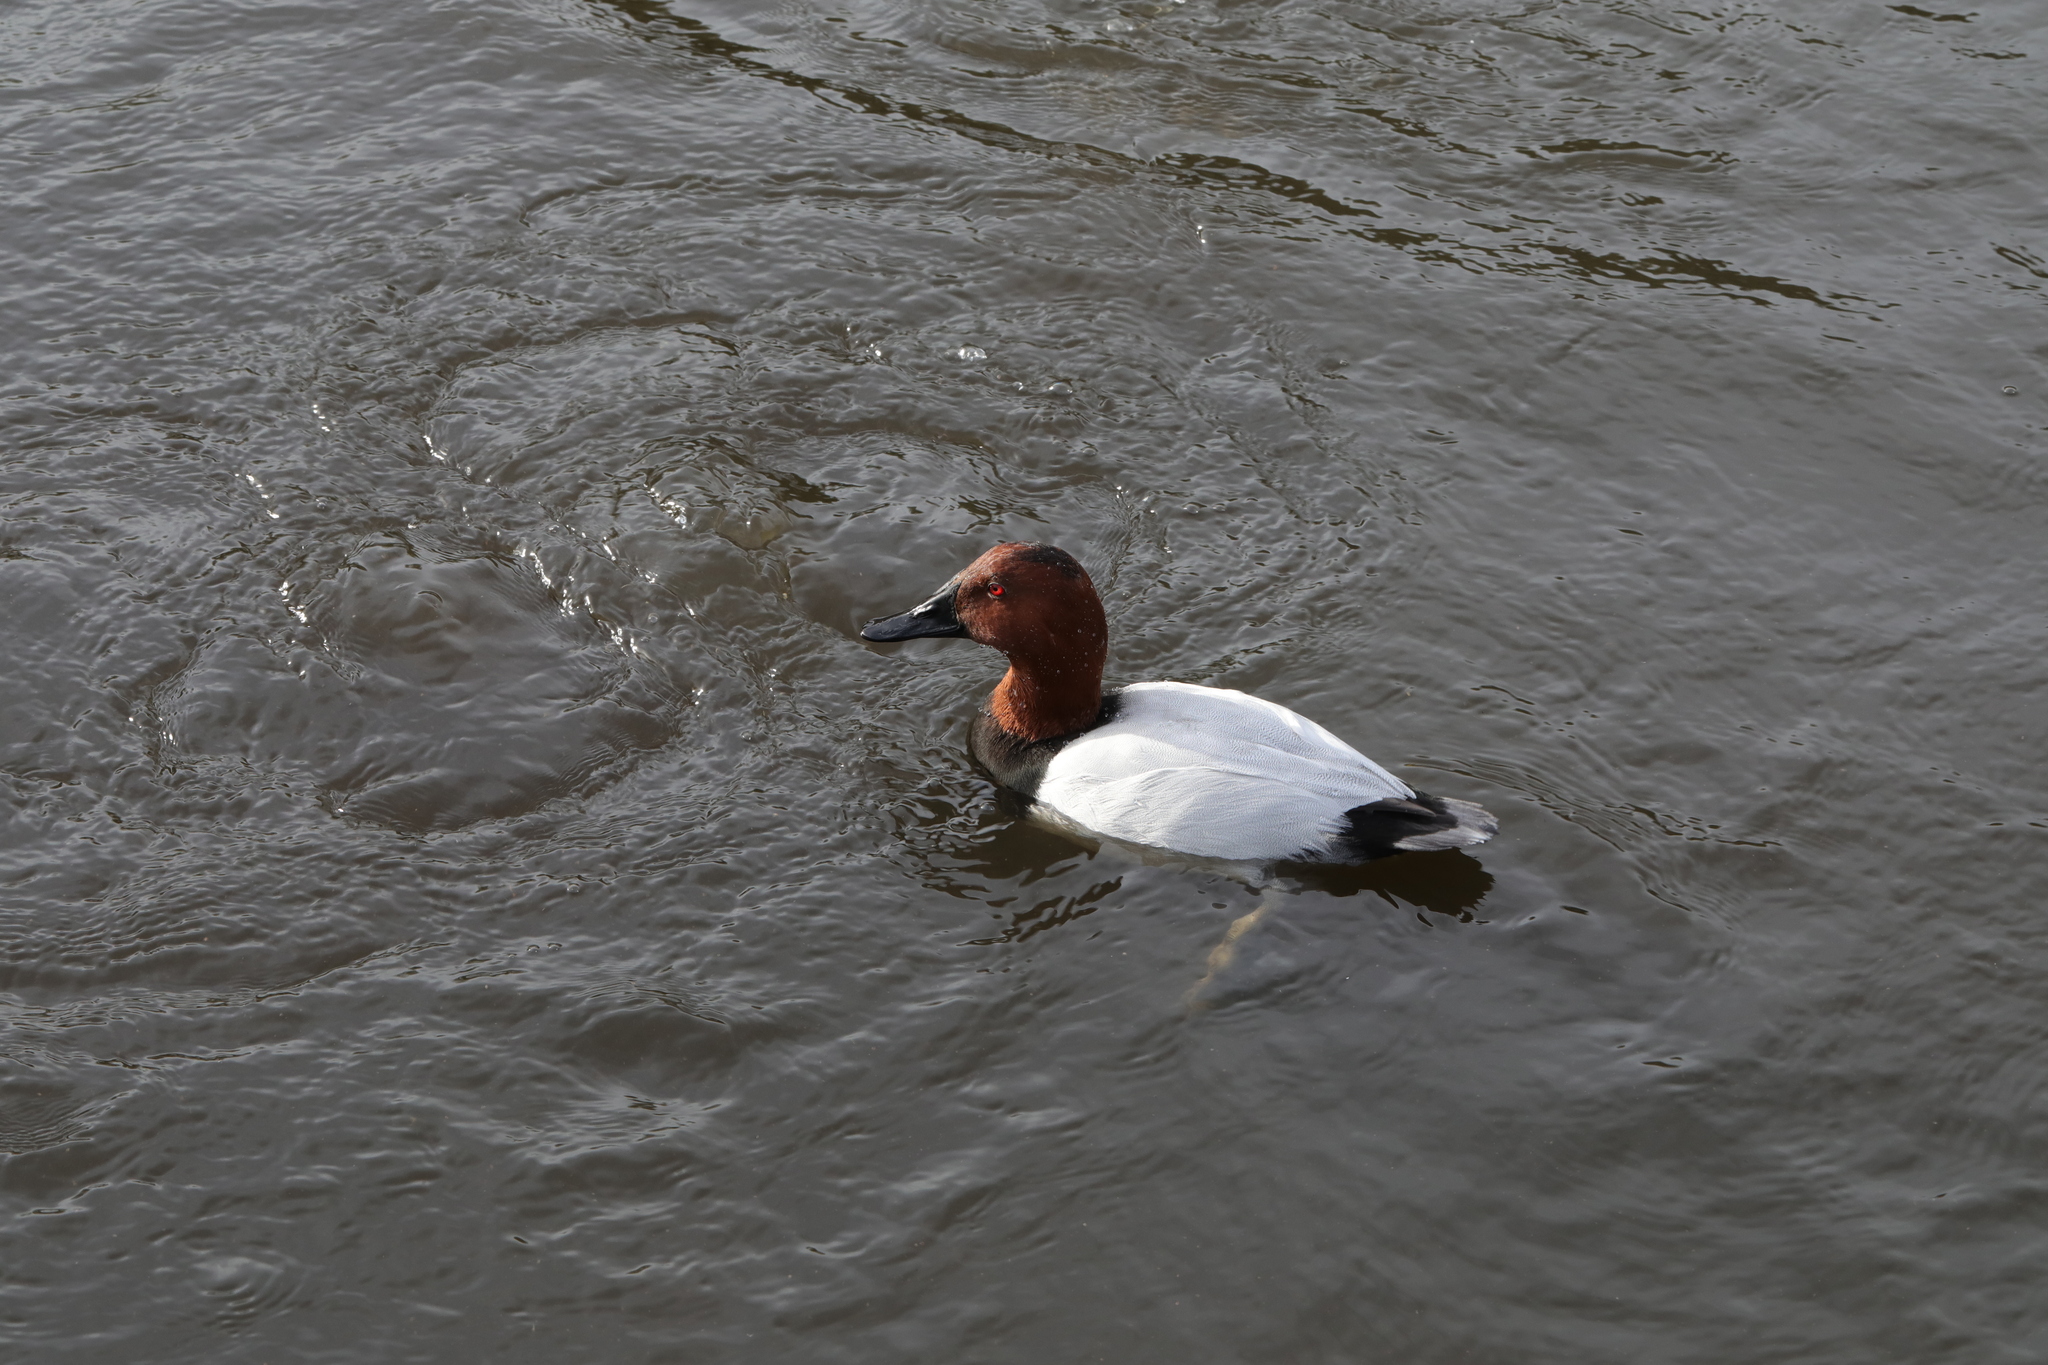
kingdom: Animalia
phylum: Chordata
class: Aves
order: Anseriformes
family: Anatidae
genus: Aythya
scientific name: Aythya ferina
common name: Common pochard
